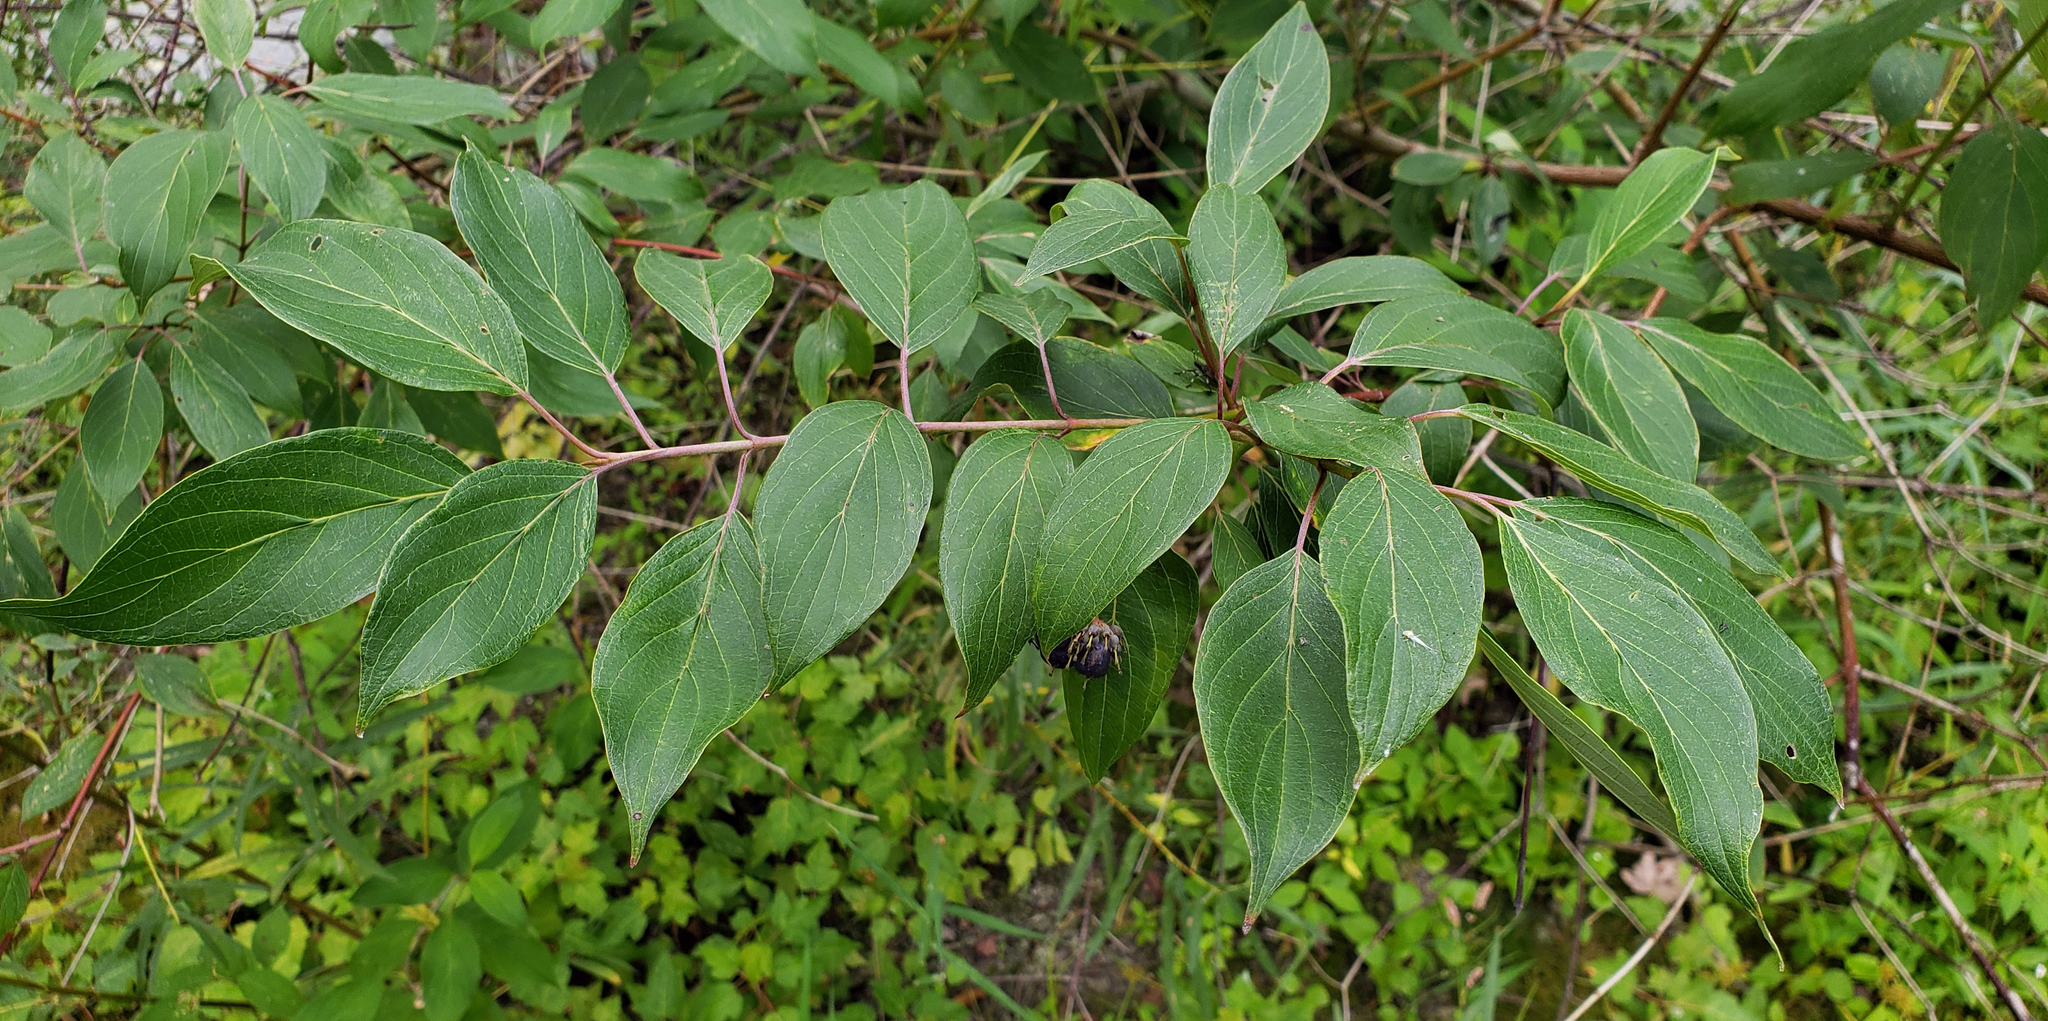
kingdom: Plantae
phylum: Tracheophyta
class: Magnoliopsida
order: Cornales
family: Cornaceae
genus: Cornus
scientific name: Cornus amomum
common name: Silky dogwood
